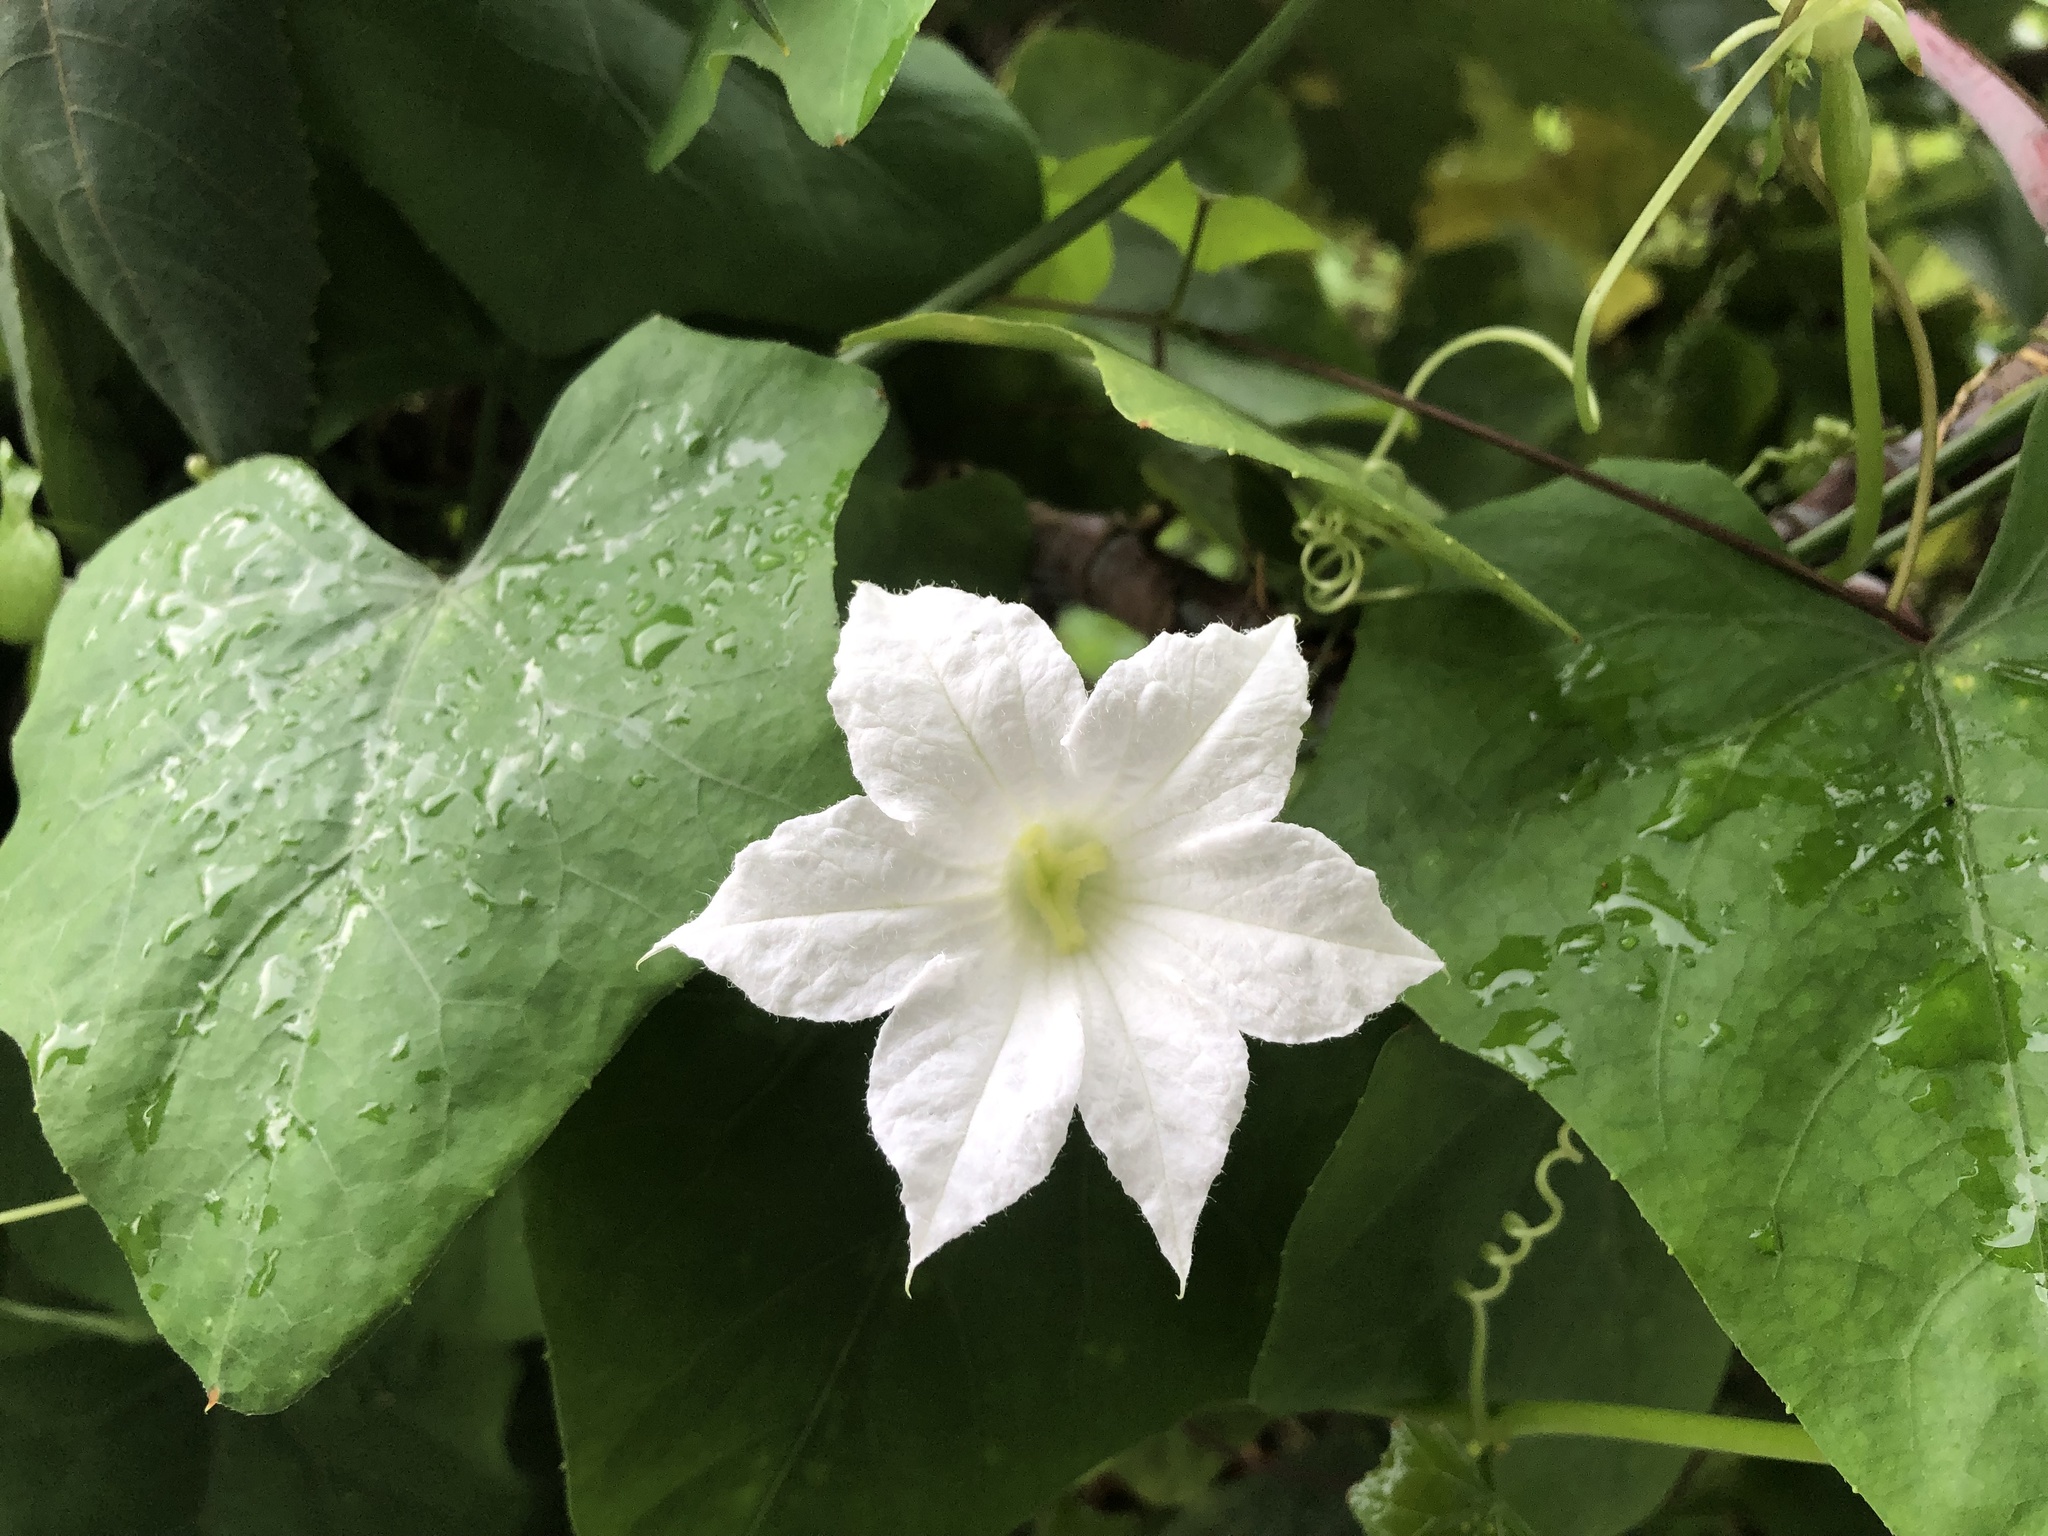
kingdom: Plantae
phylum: Tracheophyta
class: Magnoliopsida
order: Cucurbitales
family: Cucurbitaceae
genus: Coccinia
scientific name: Coccinia grandis
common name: Ivy gourd
